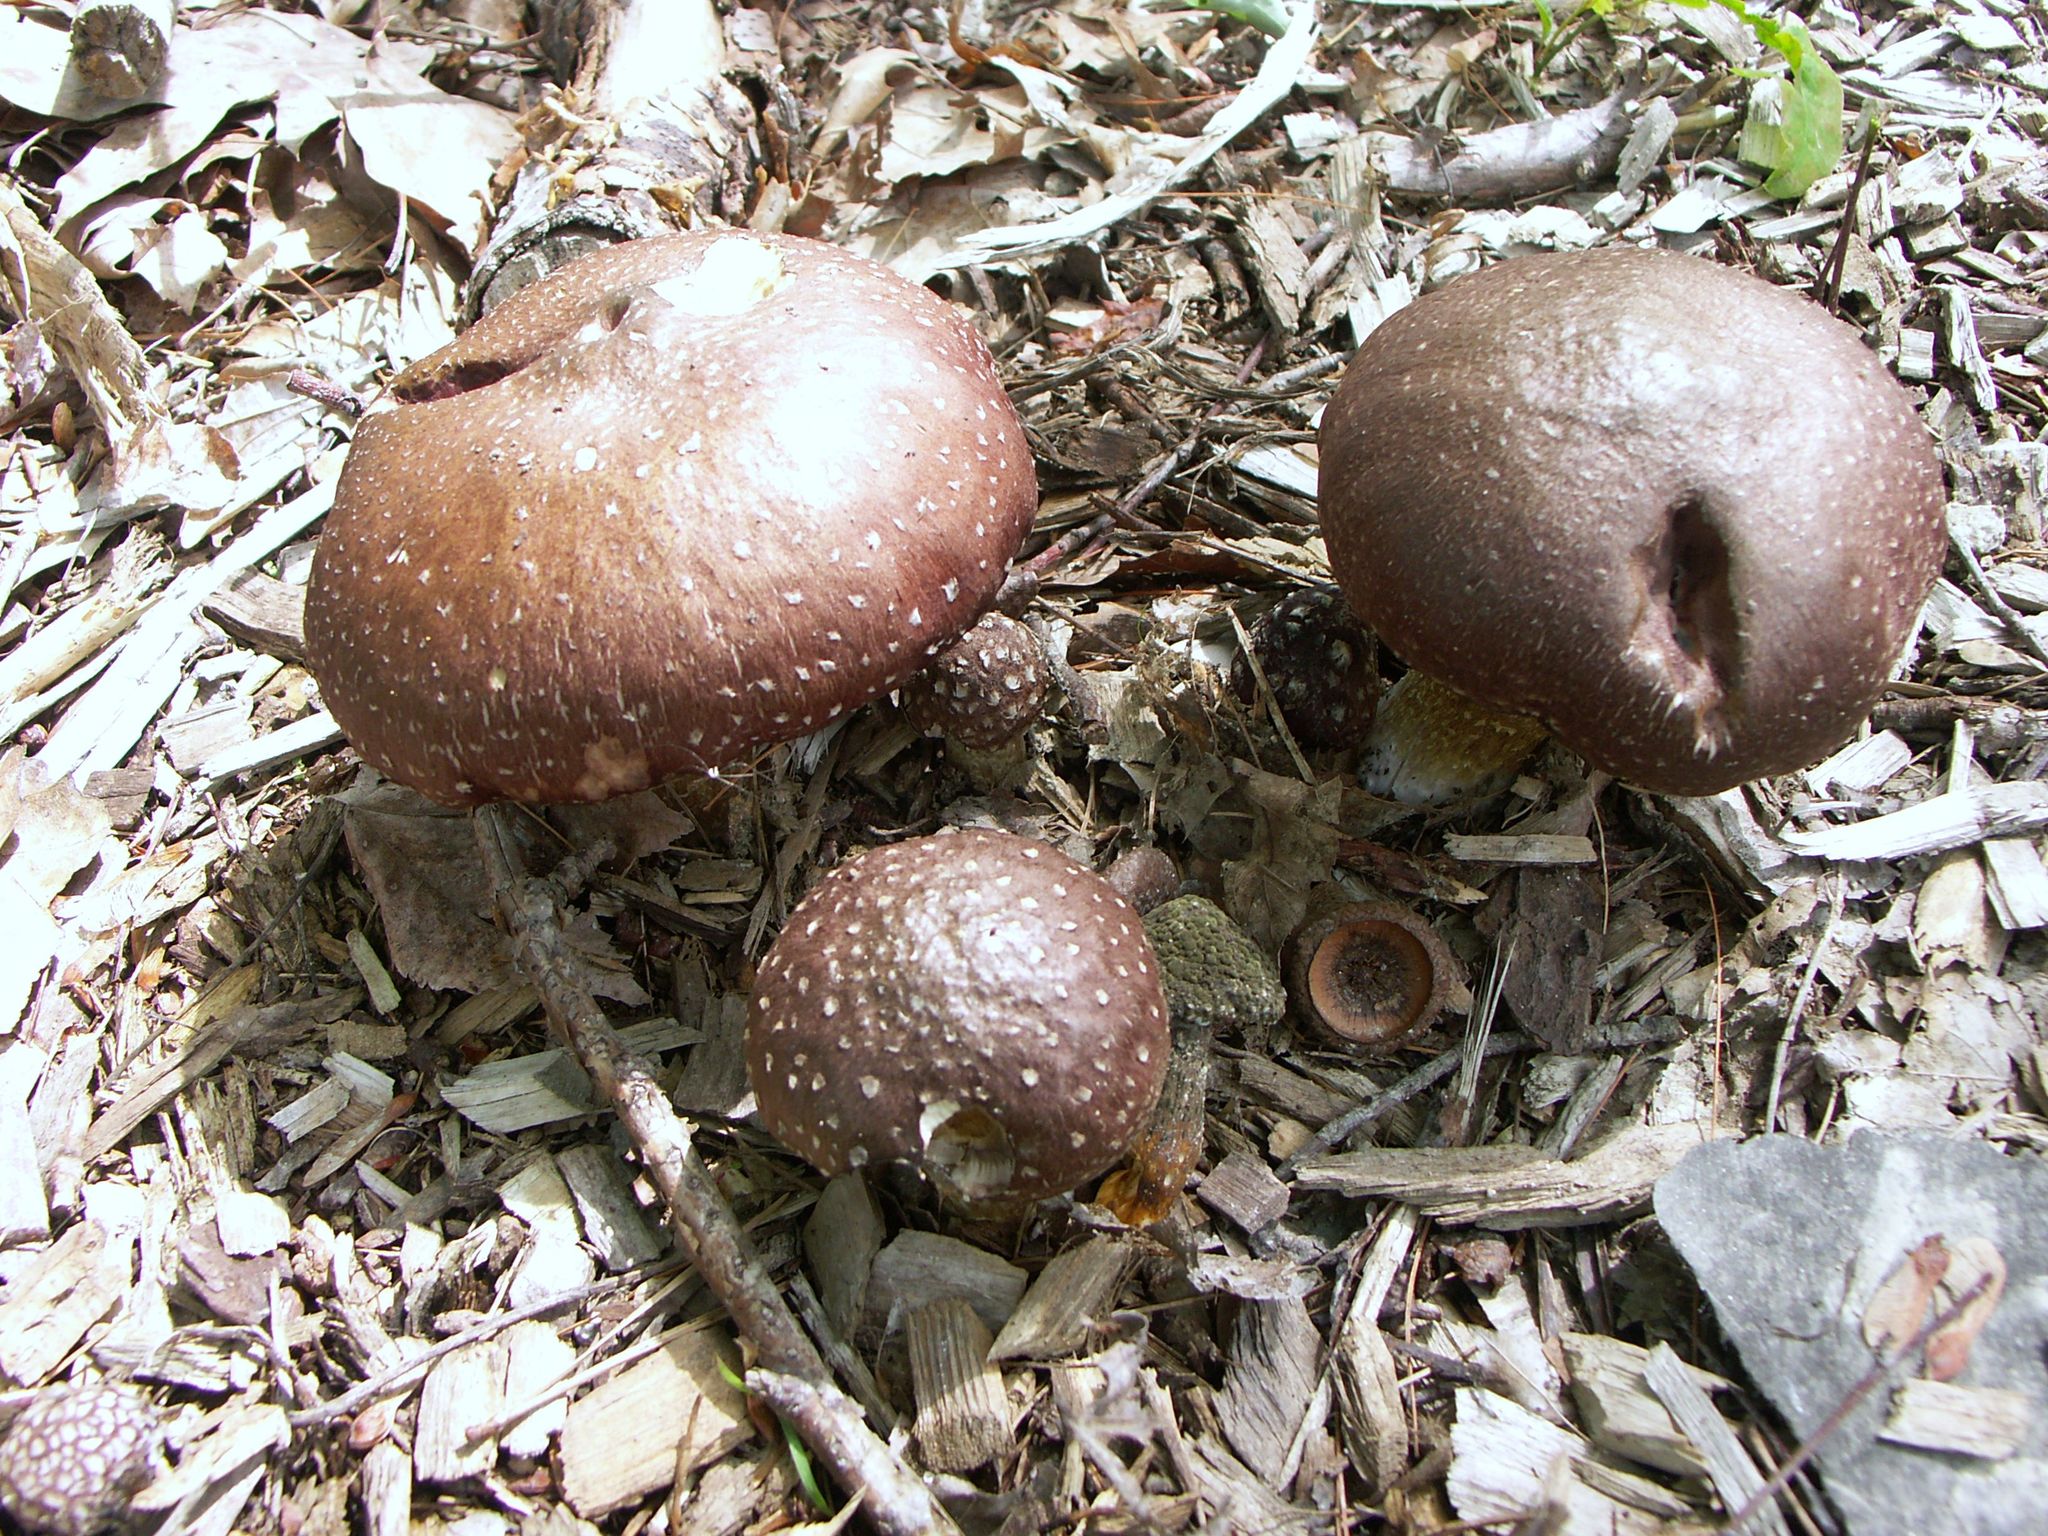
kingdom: Fungi
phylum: Basidiomycota
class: Agaricomycetes
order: Agaricales
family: Strophariaceae
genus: Stropharia
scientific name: Stropharia rugosoannulata
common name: Wine roundhead
